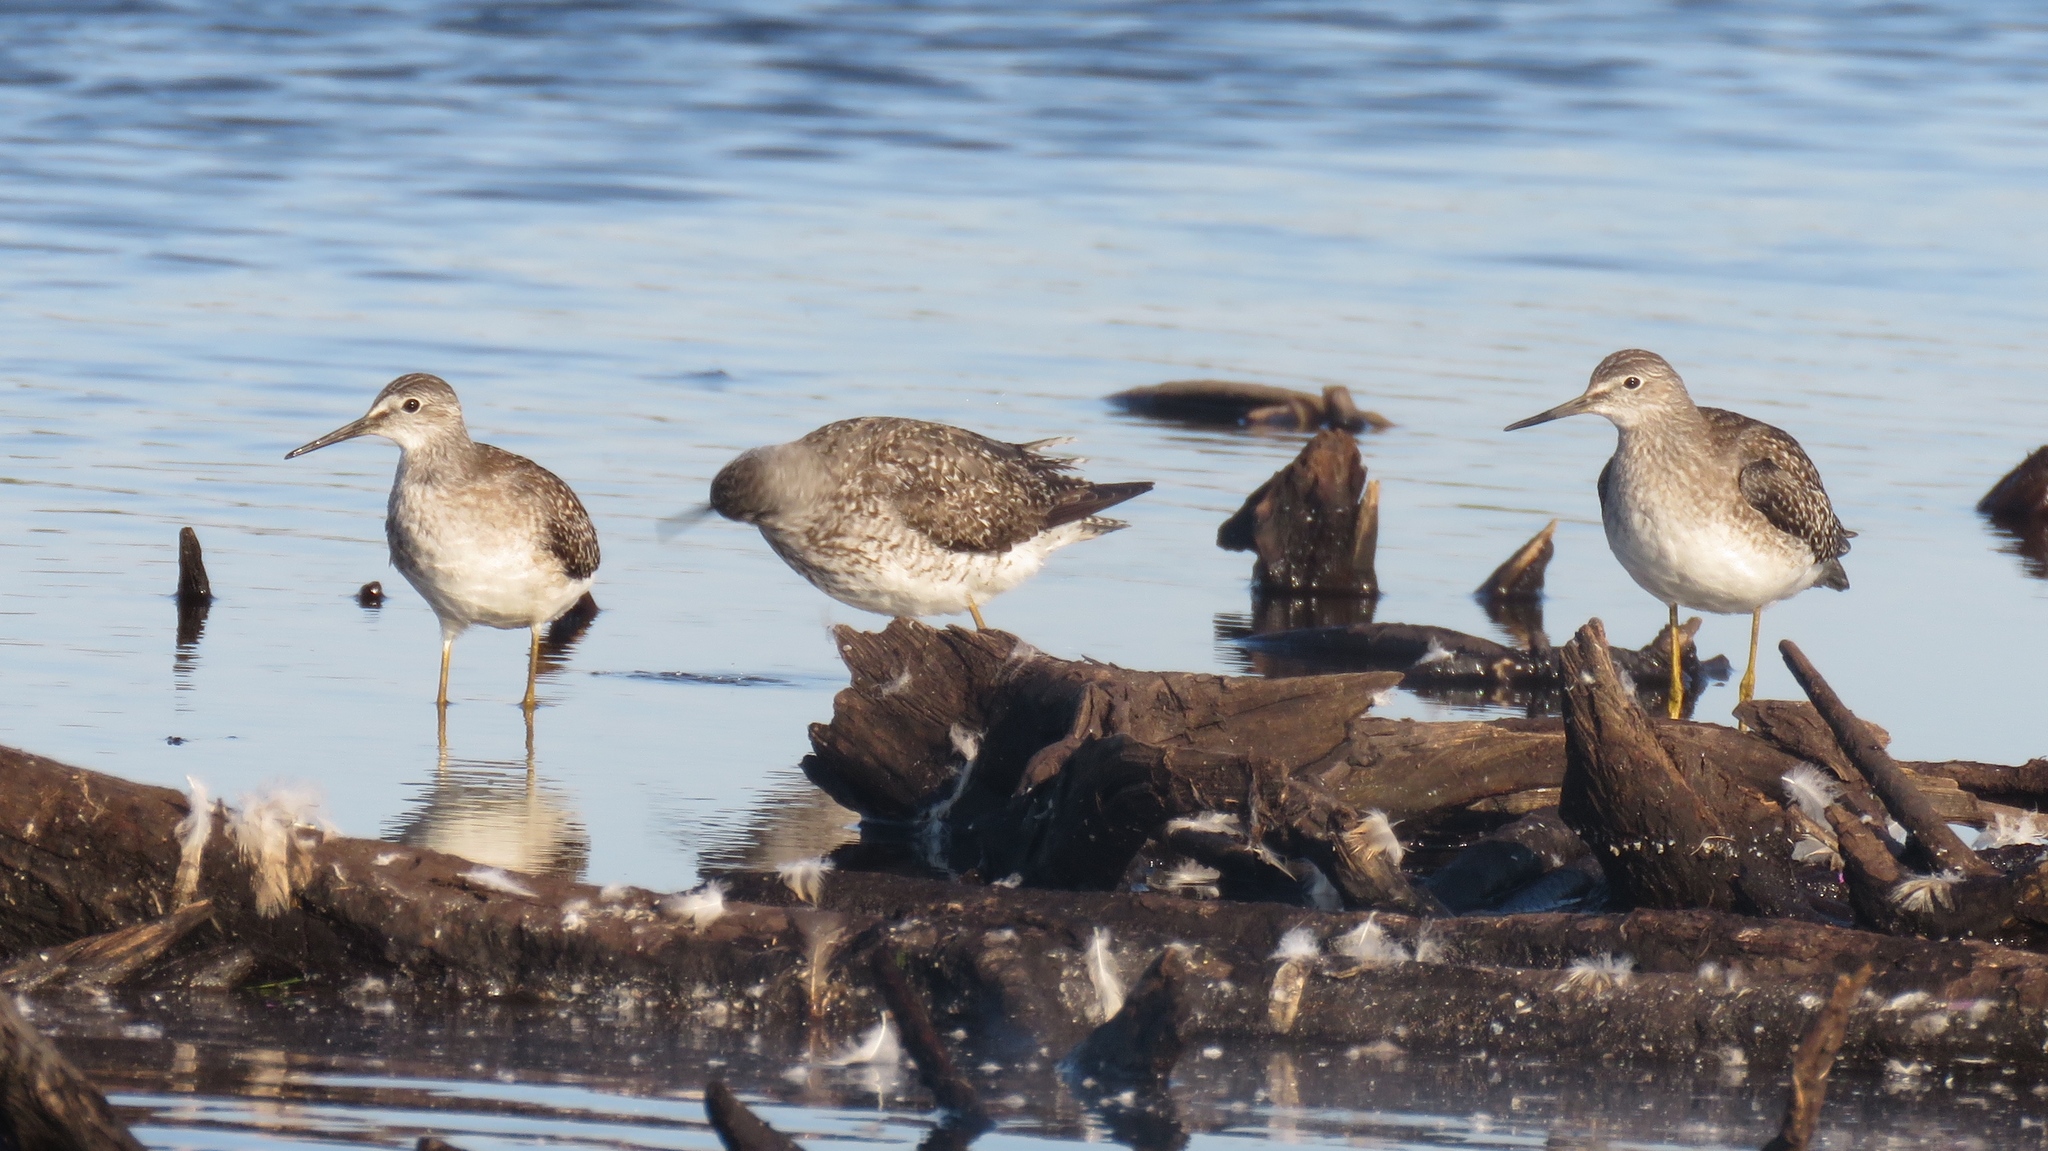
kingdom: Animalia
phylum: Chordata
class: Aves
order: Charadriiformes
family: Scolopacidae
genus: Tringa
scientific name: Tringa flavipes
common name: Lesser yellowlegs
